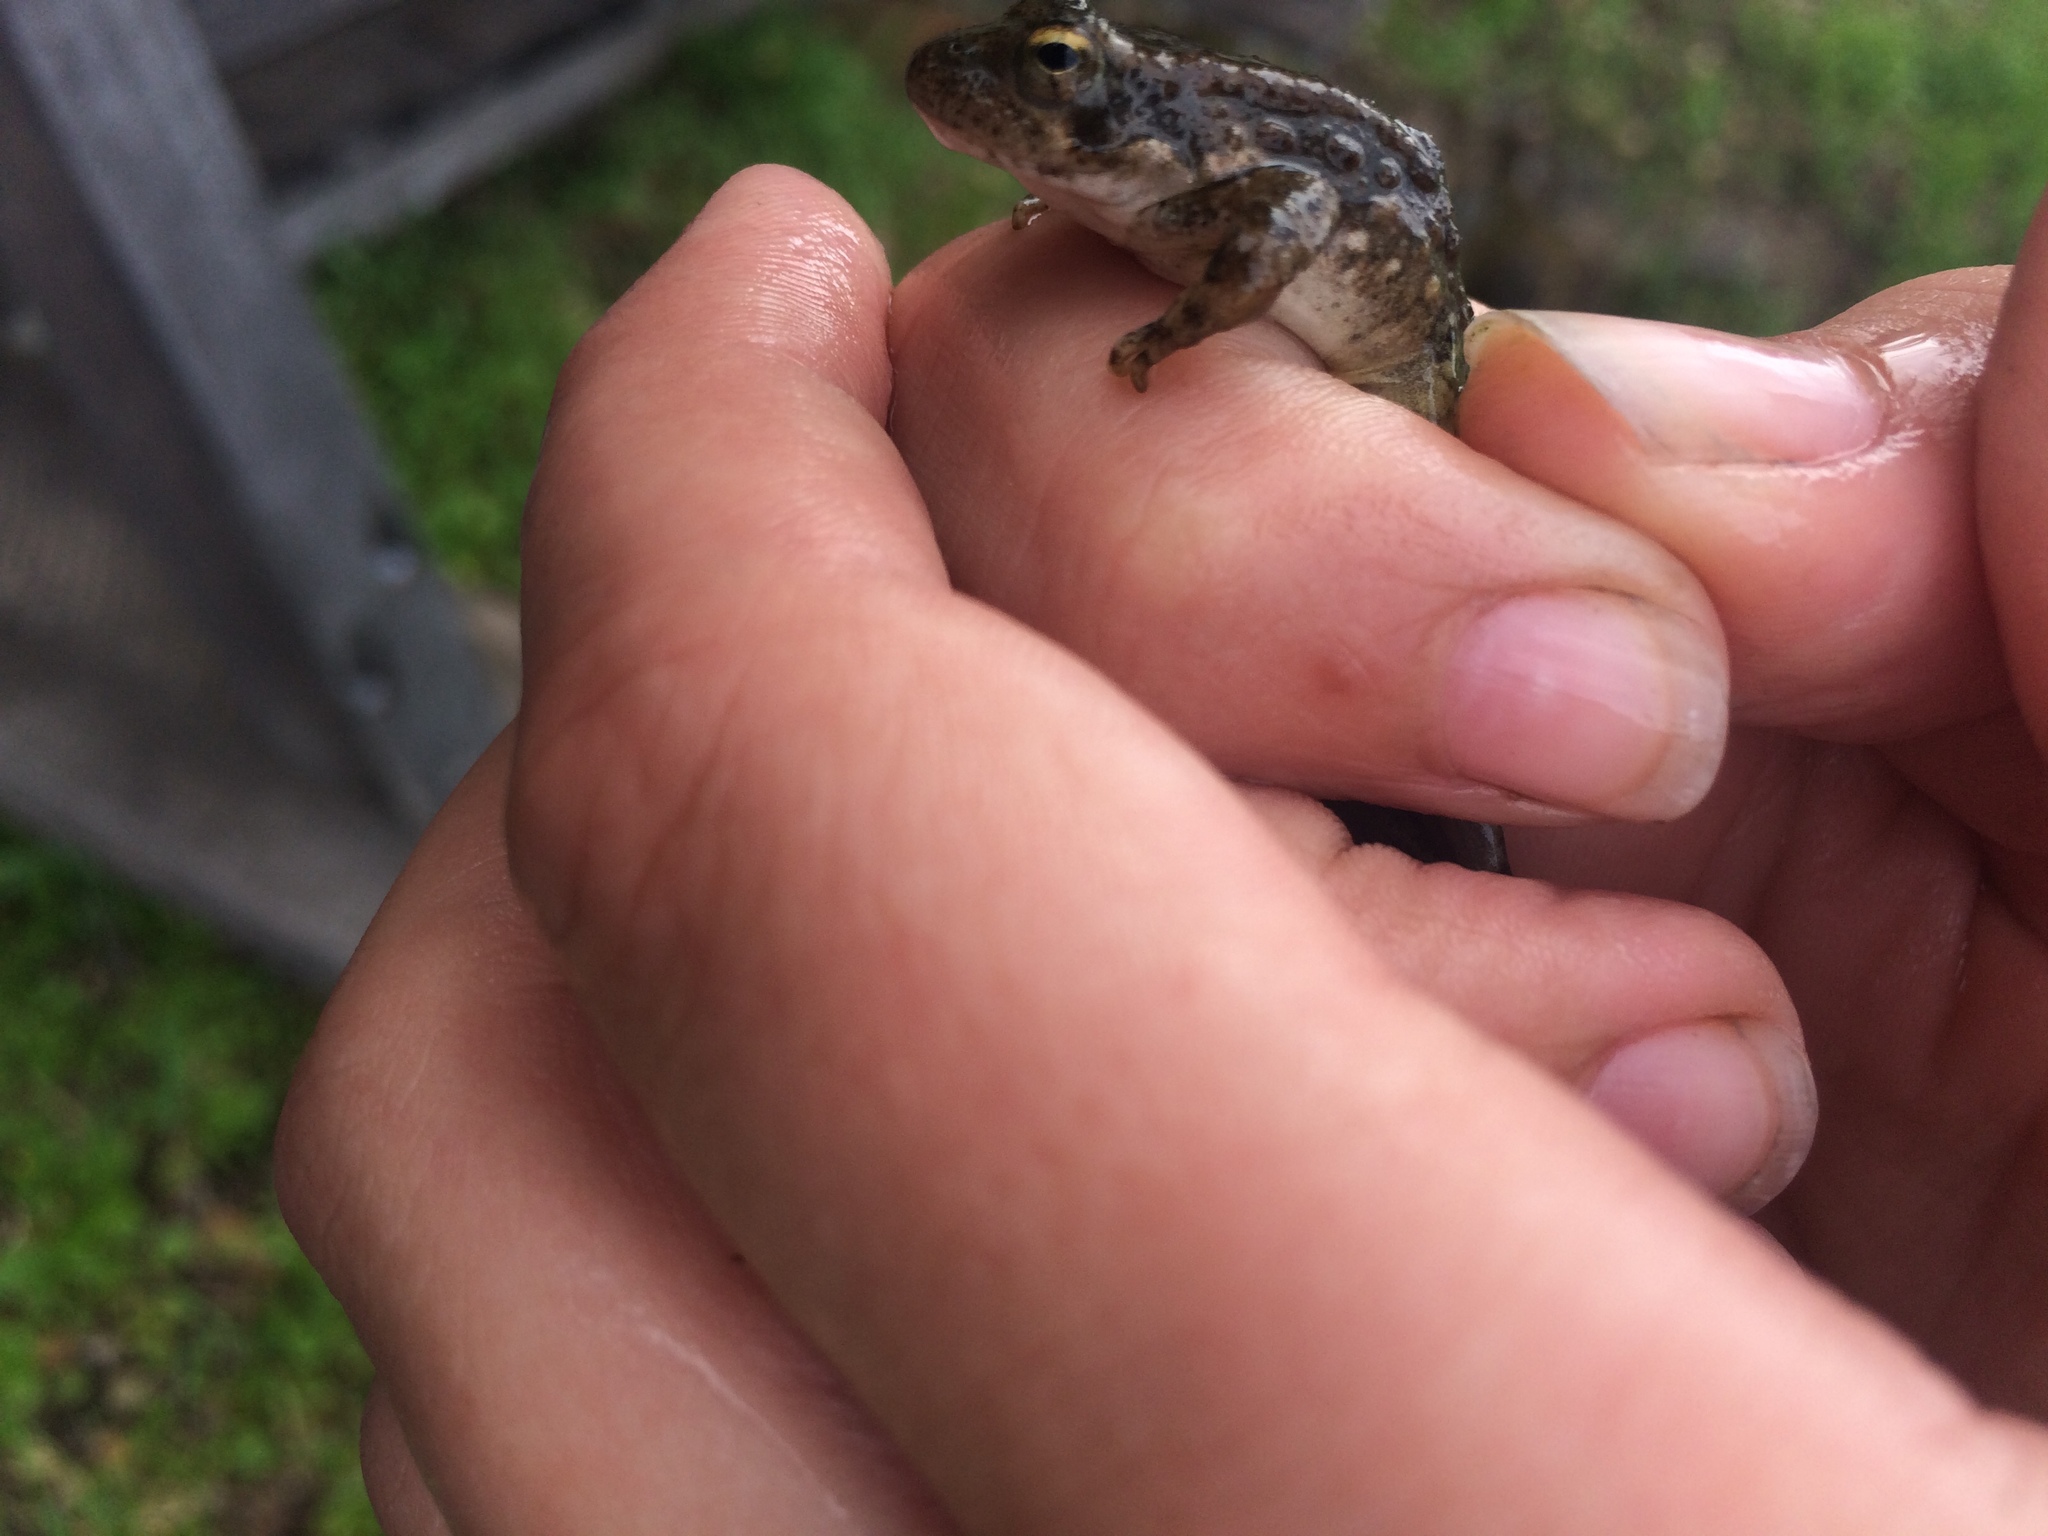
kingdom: Animalia
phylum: Chordata
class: Amphibia
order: Anura
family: Ranidae
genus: Rana
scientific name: Rana boylii
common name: Foothill yellow-legged frog
